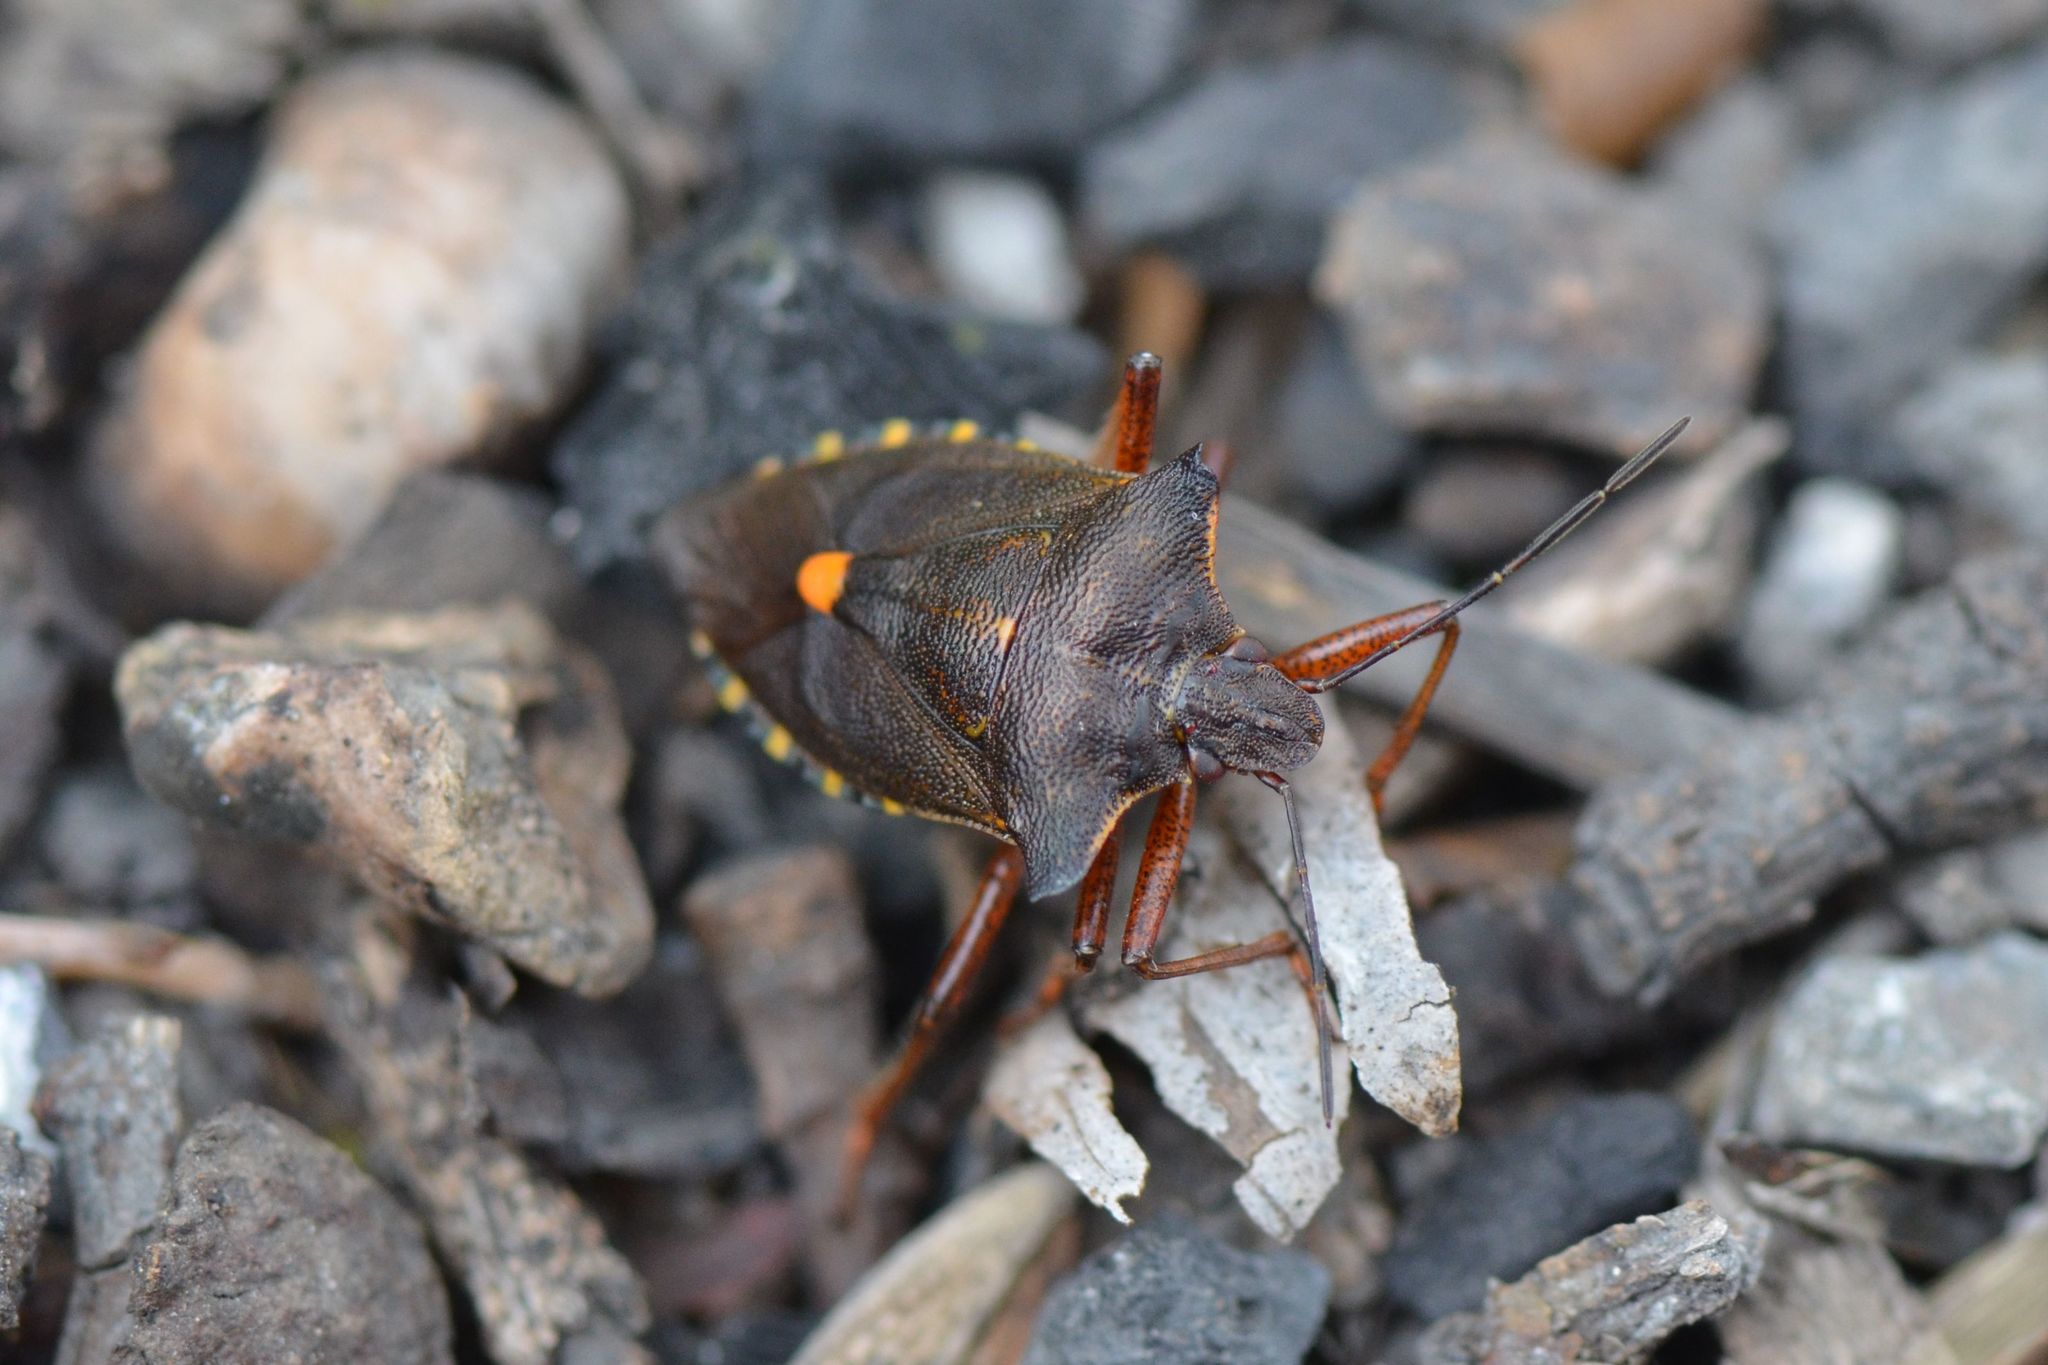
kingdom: Animalia
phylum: Arthropoda
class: Insecta
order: Hemiptera
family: Pentatomidae
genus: Pentatoma
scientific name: Pentatoma rufipes
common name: Forest bug
